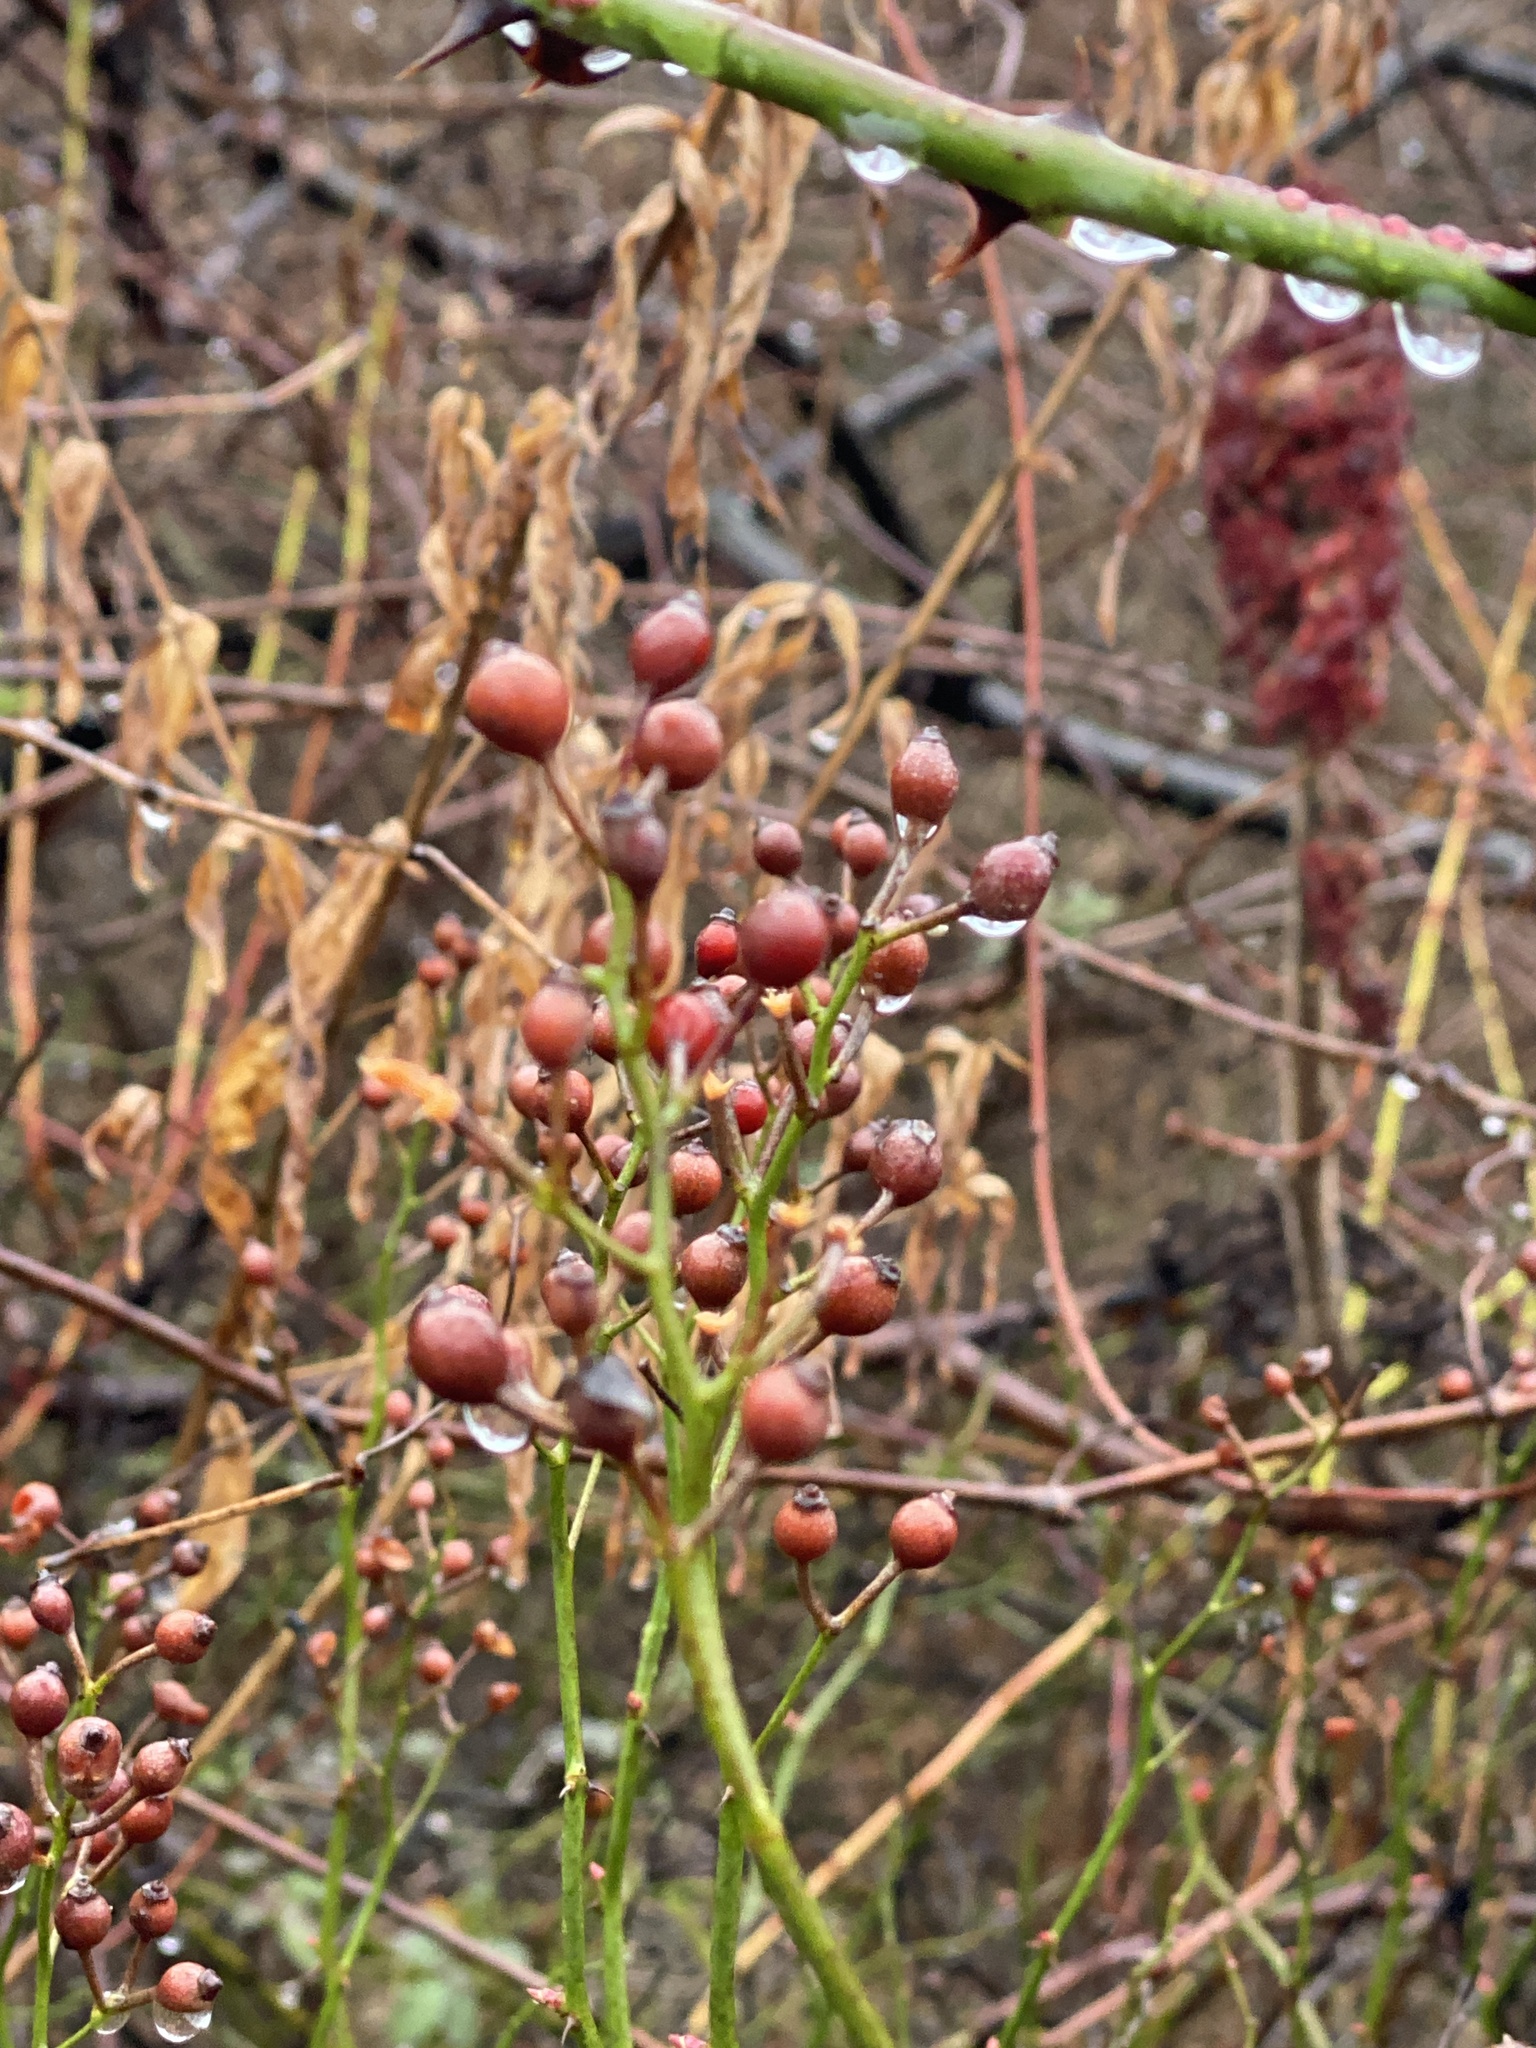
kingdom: Plantae
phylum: Tracheophyta
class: Magnoliopsida
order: Rosales
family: Rosaceae
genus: Rosa
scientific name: Rosa multiflora
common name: Multiflora rose
